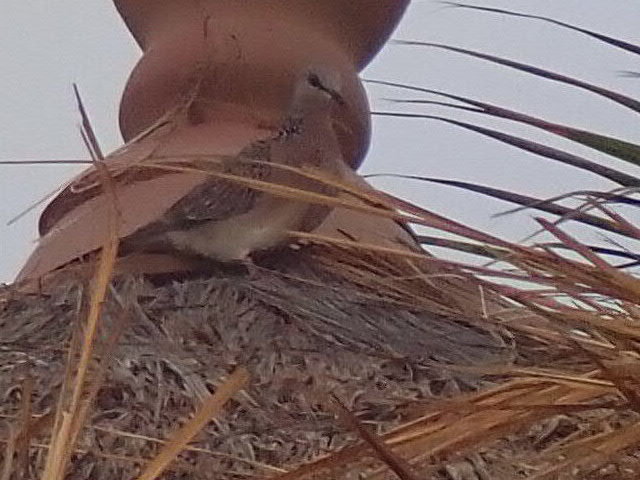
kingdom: Animalia
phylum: Chordata
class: Aves
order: Columbiformes
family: Columbidae
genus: Spilopelia
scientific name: Spilopelia chinensis
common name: Spotted dove
